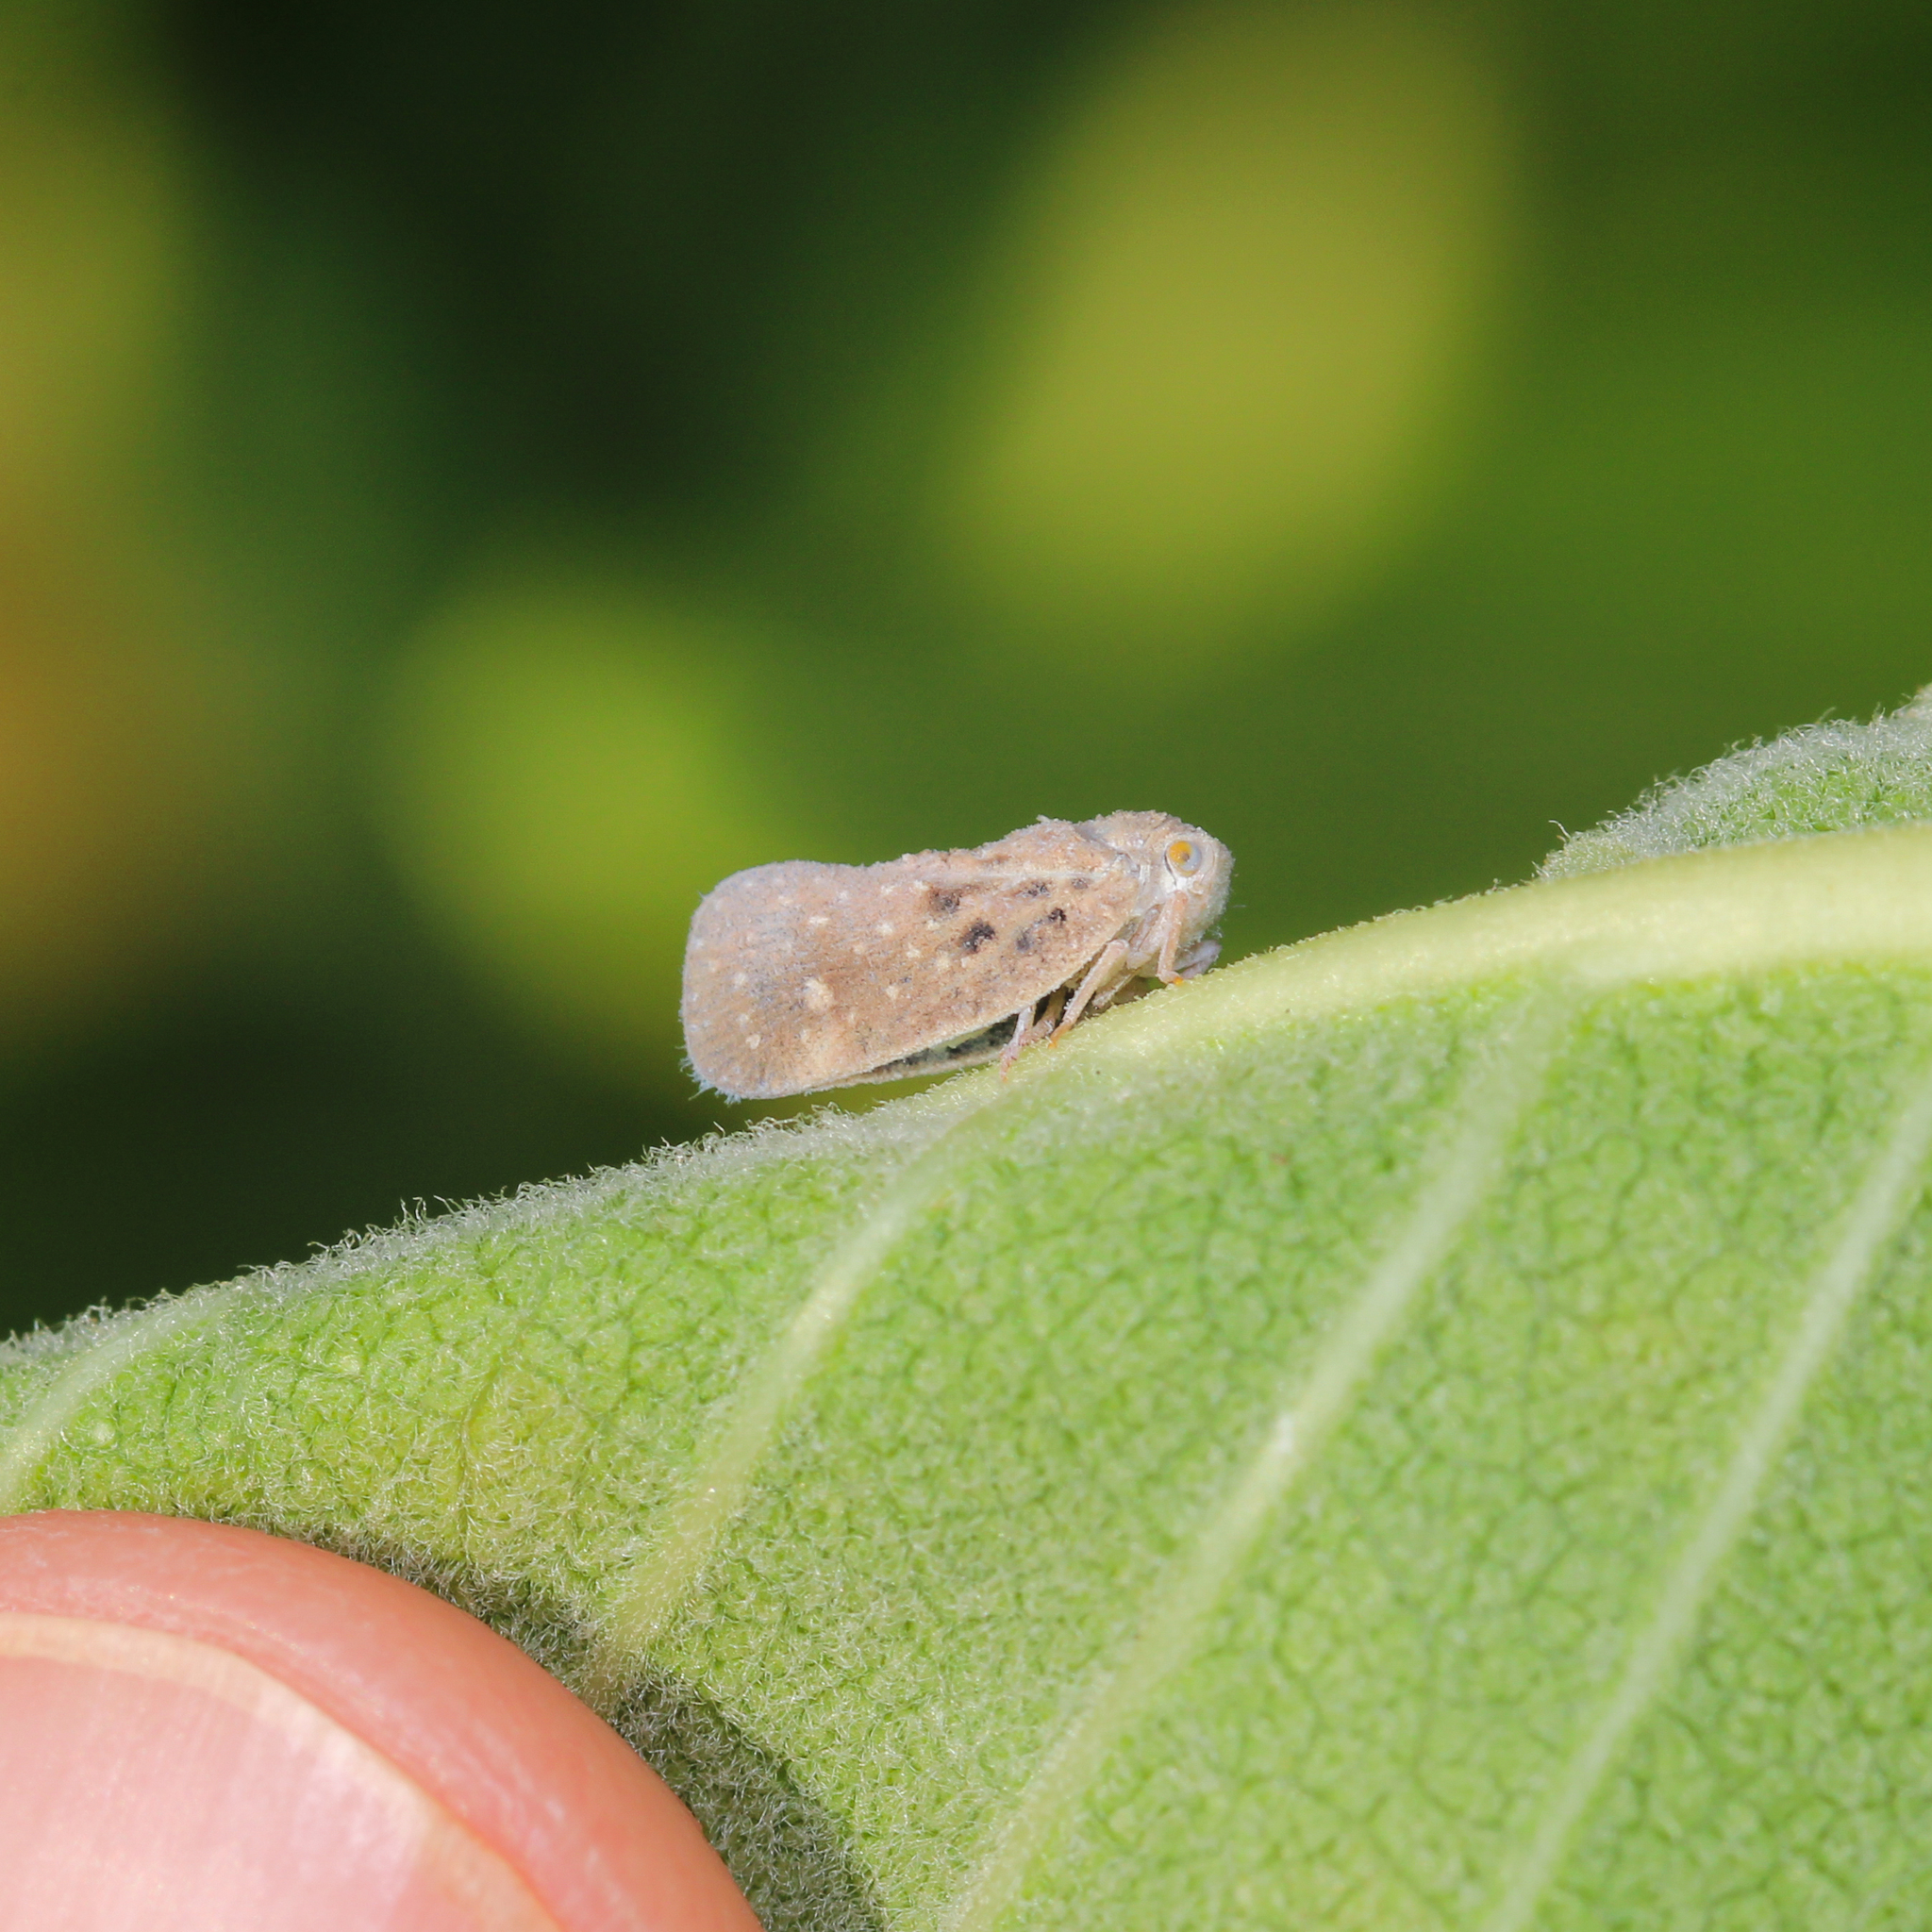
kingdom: Animalia
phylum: Arthropoda
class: Insecta
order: Hemiptera
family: Flatidae
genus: Metcalfa
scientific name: Metcalfa pruinosa
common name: Citrus flatid planthopper
